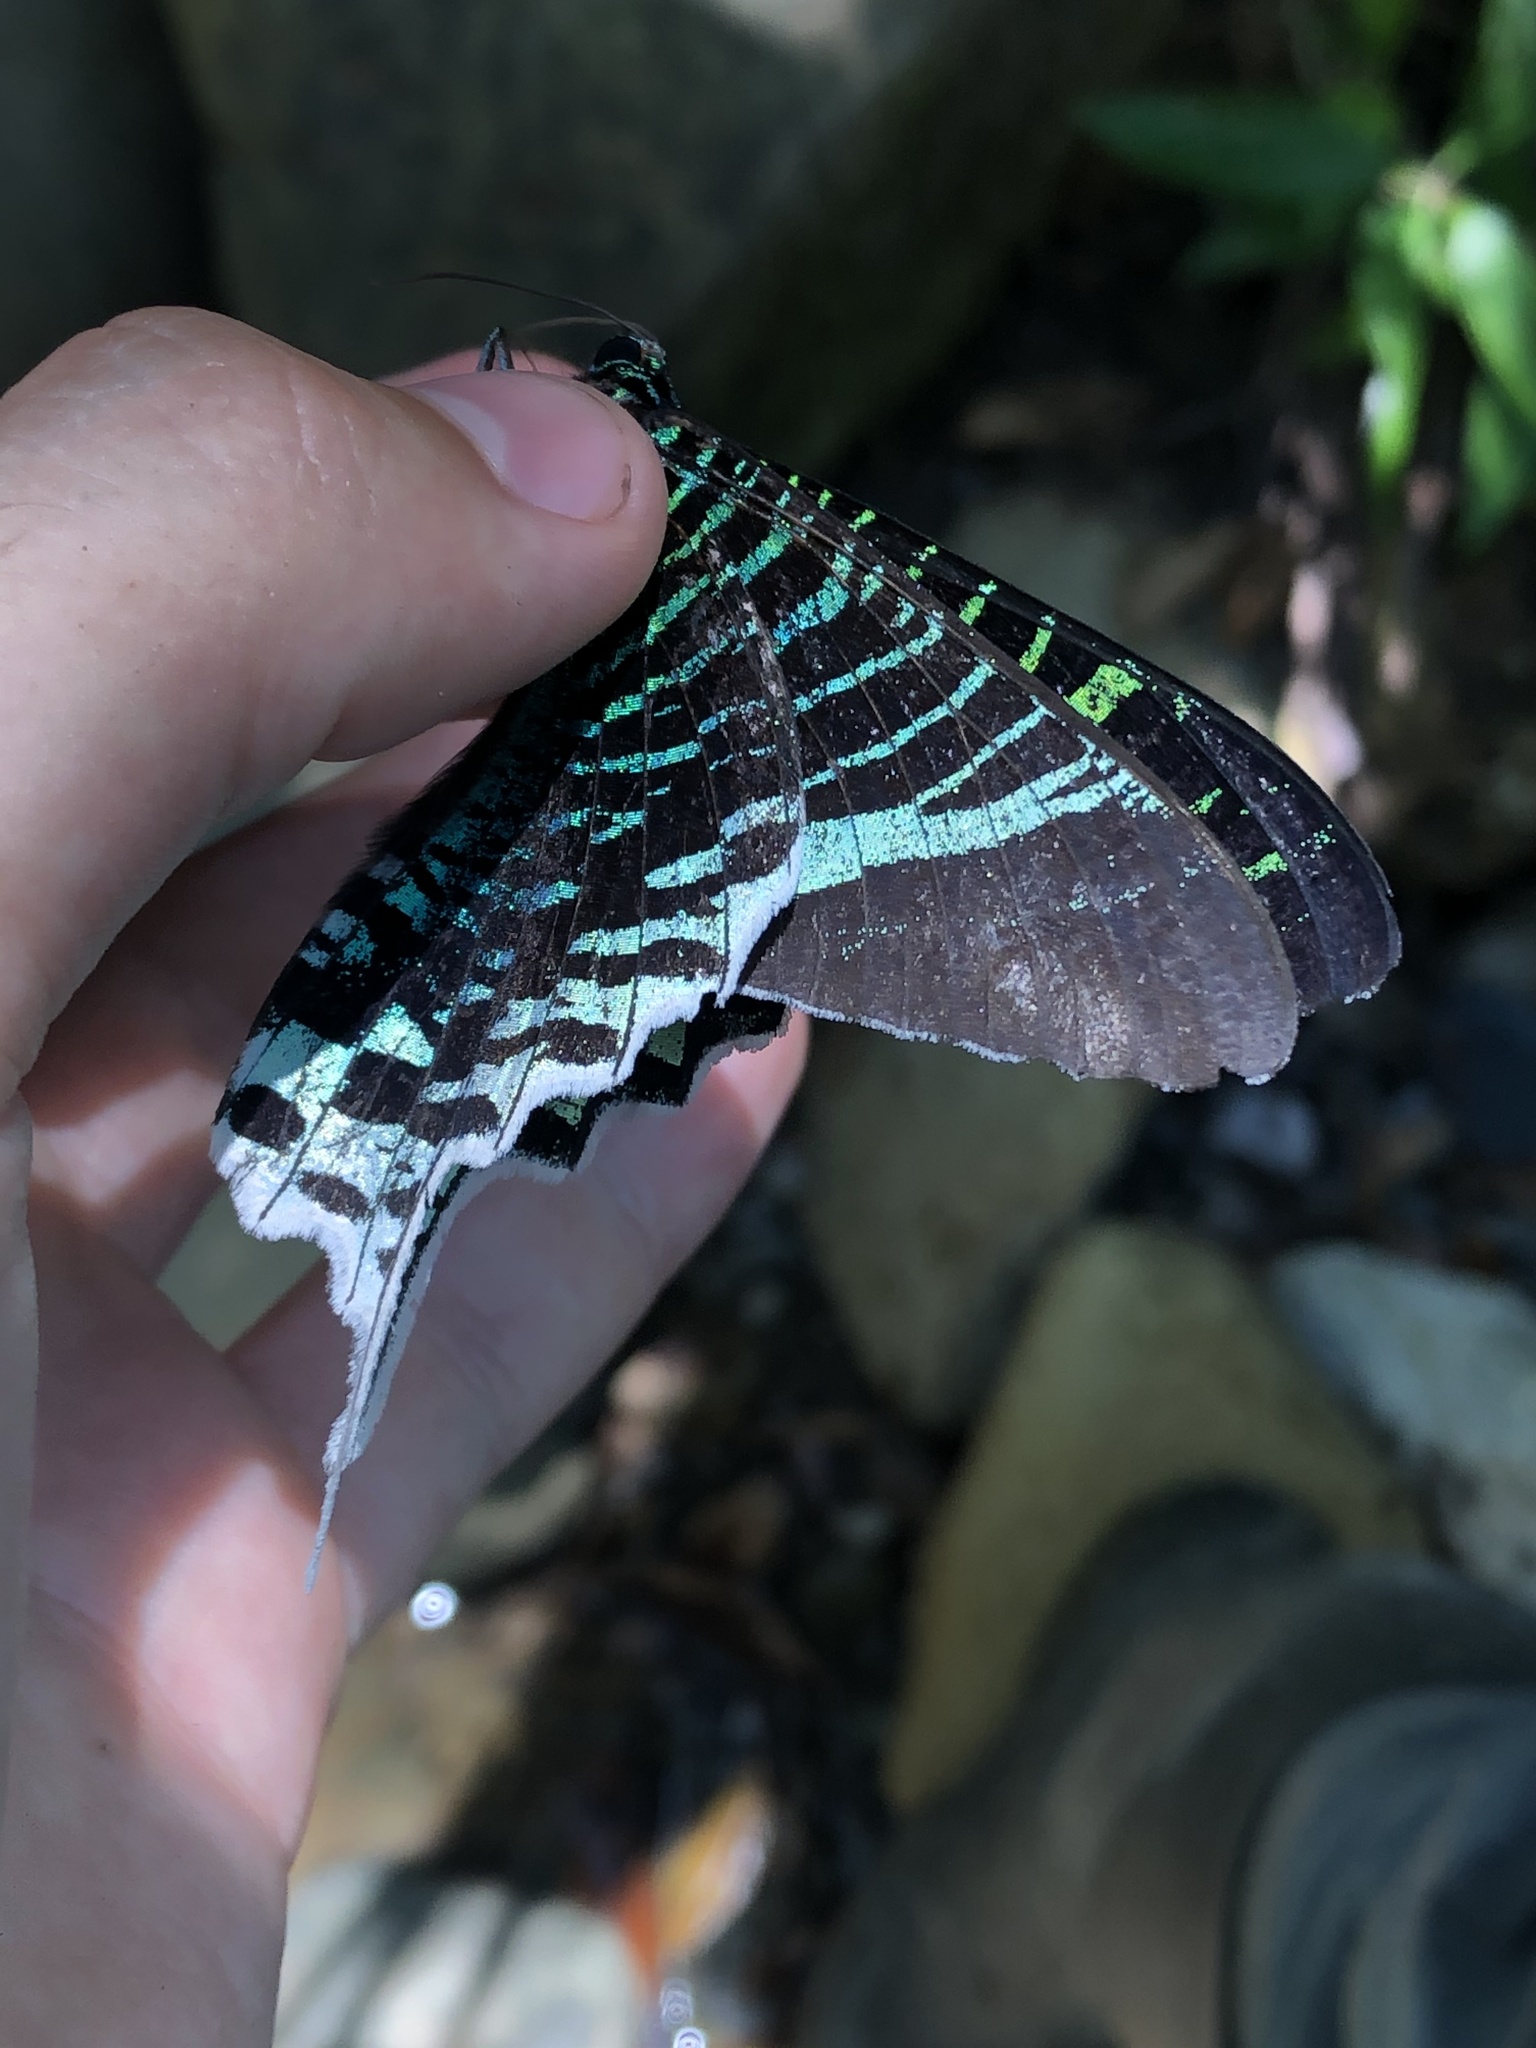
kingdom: Animalia
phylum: Arthropoda
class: Insecta
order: Lepidoptera
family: Uraniidae
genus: Urania
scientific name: Urania leilus
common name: Peacock moth
